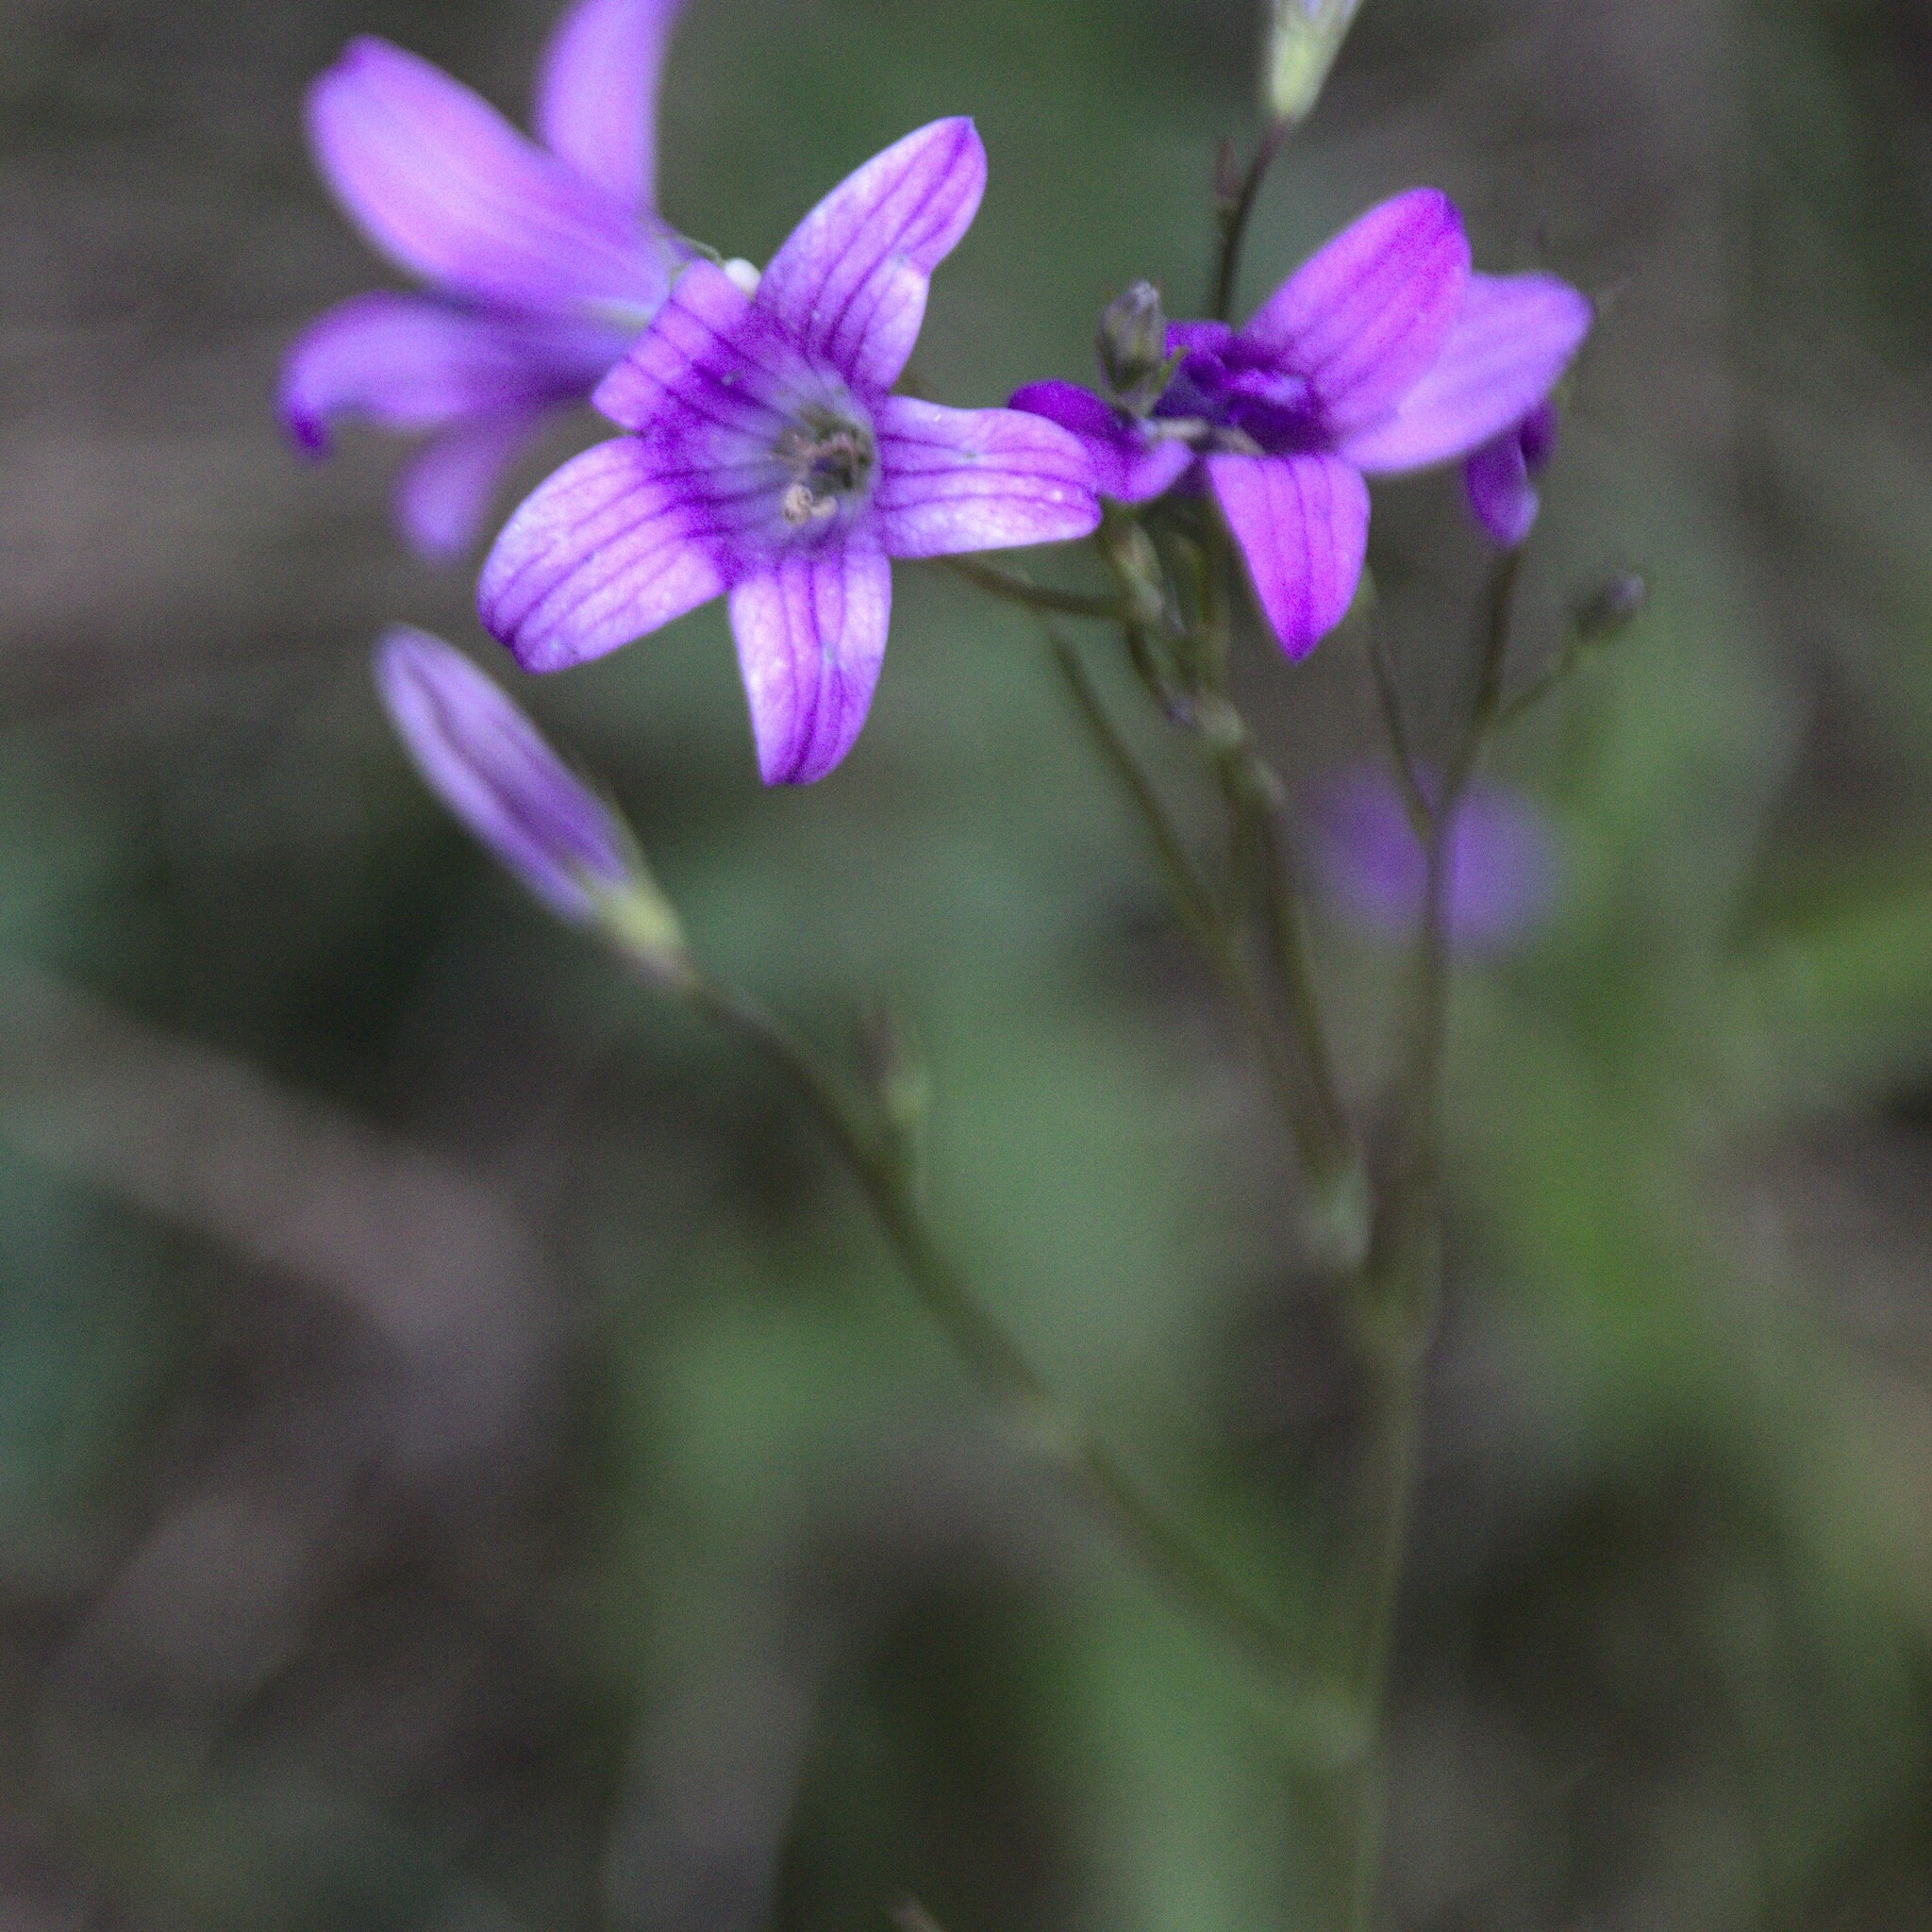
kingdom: Plantae
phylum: Tracheophyta
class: Magnoliopsida
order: Asterales
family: Campanulaceae
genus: Campanula
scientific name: Campanula patula
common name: Spreading bellflower
